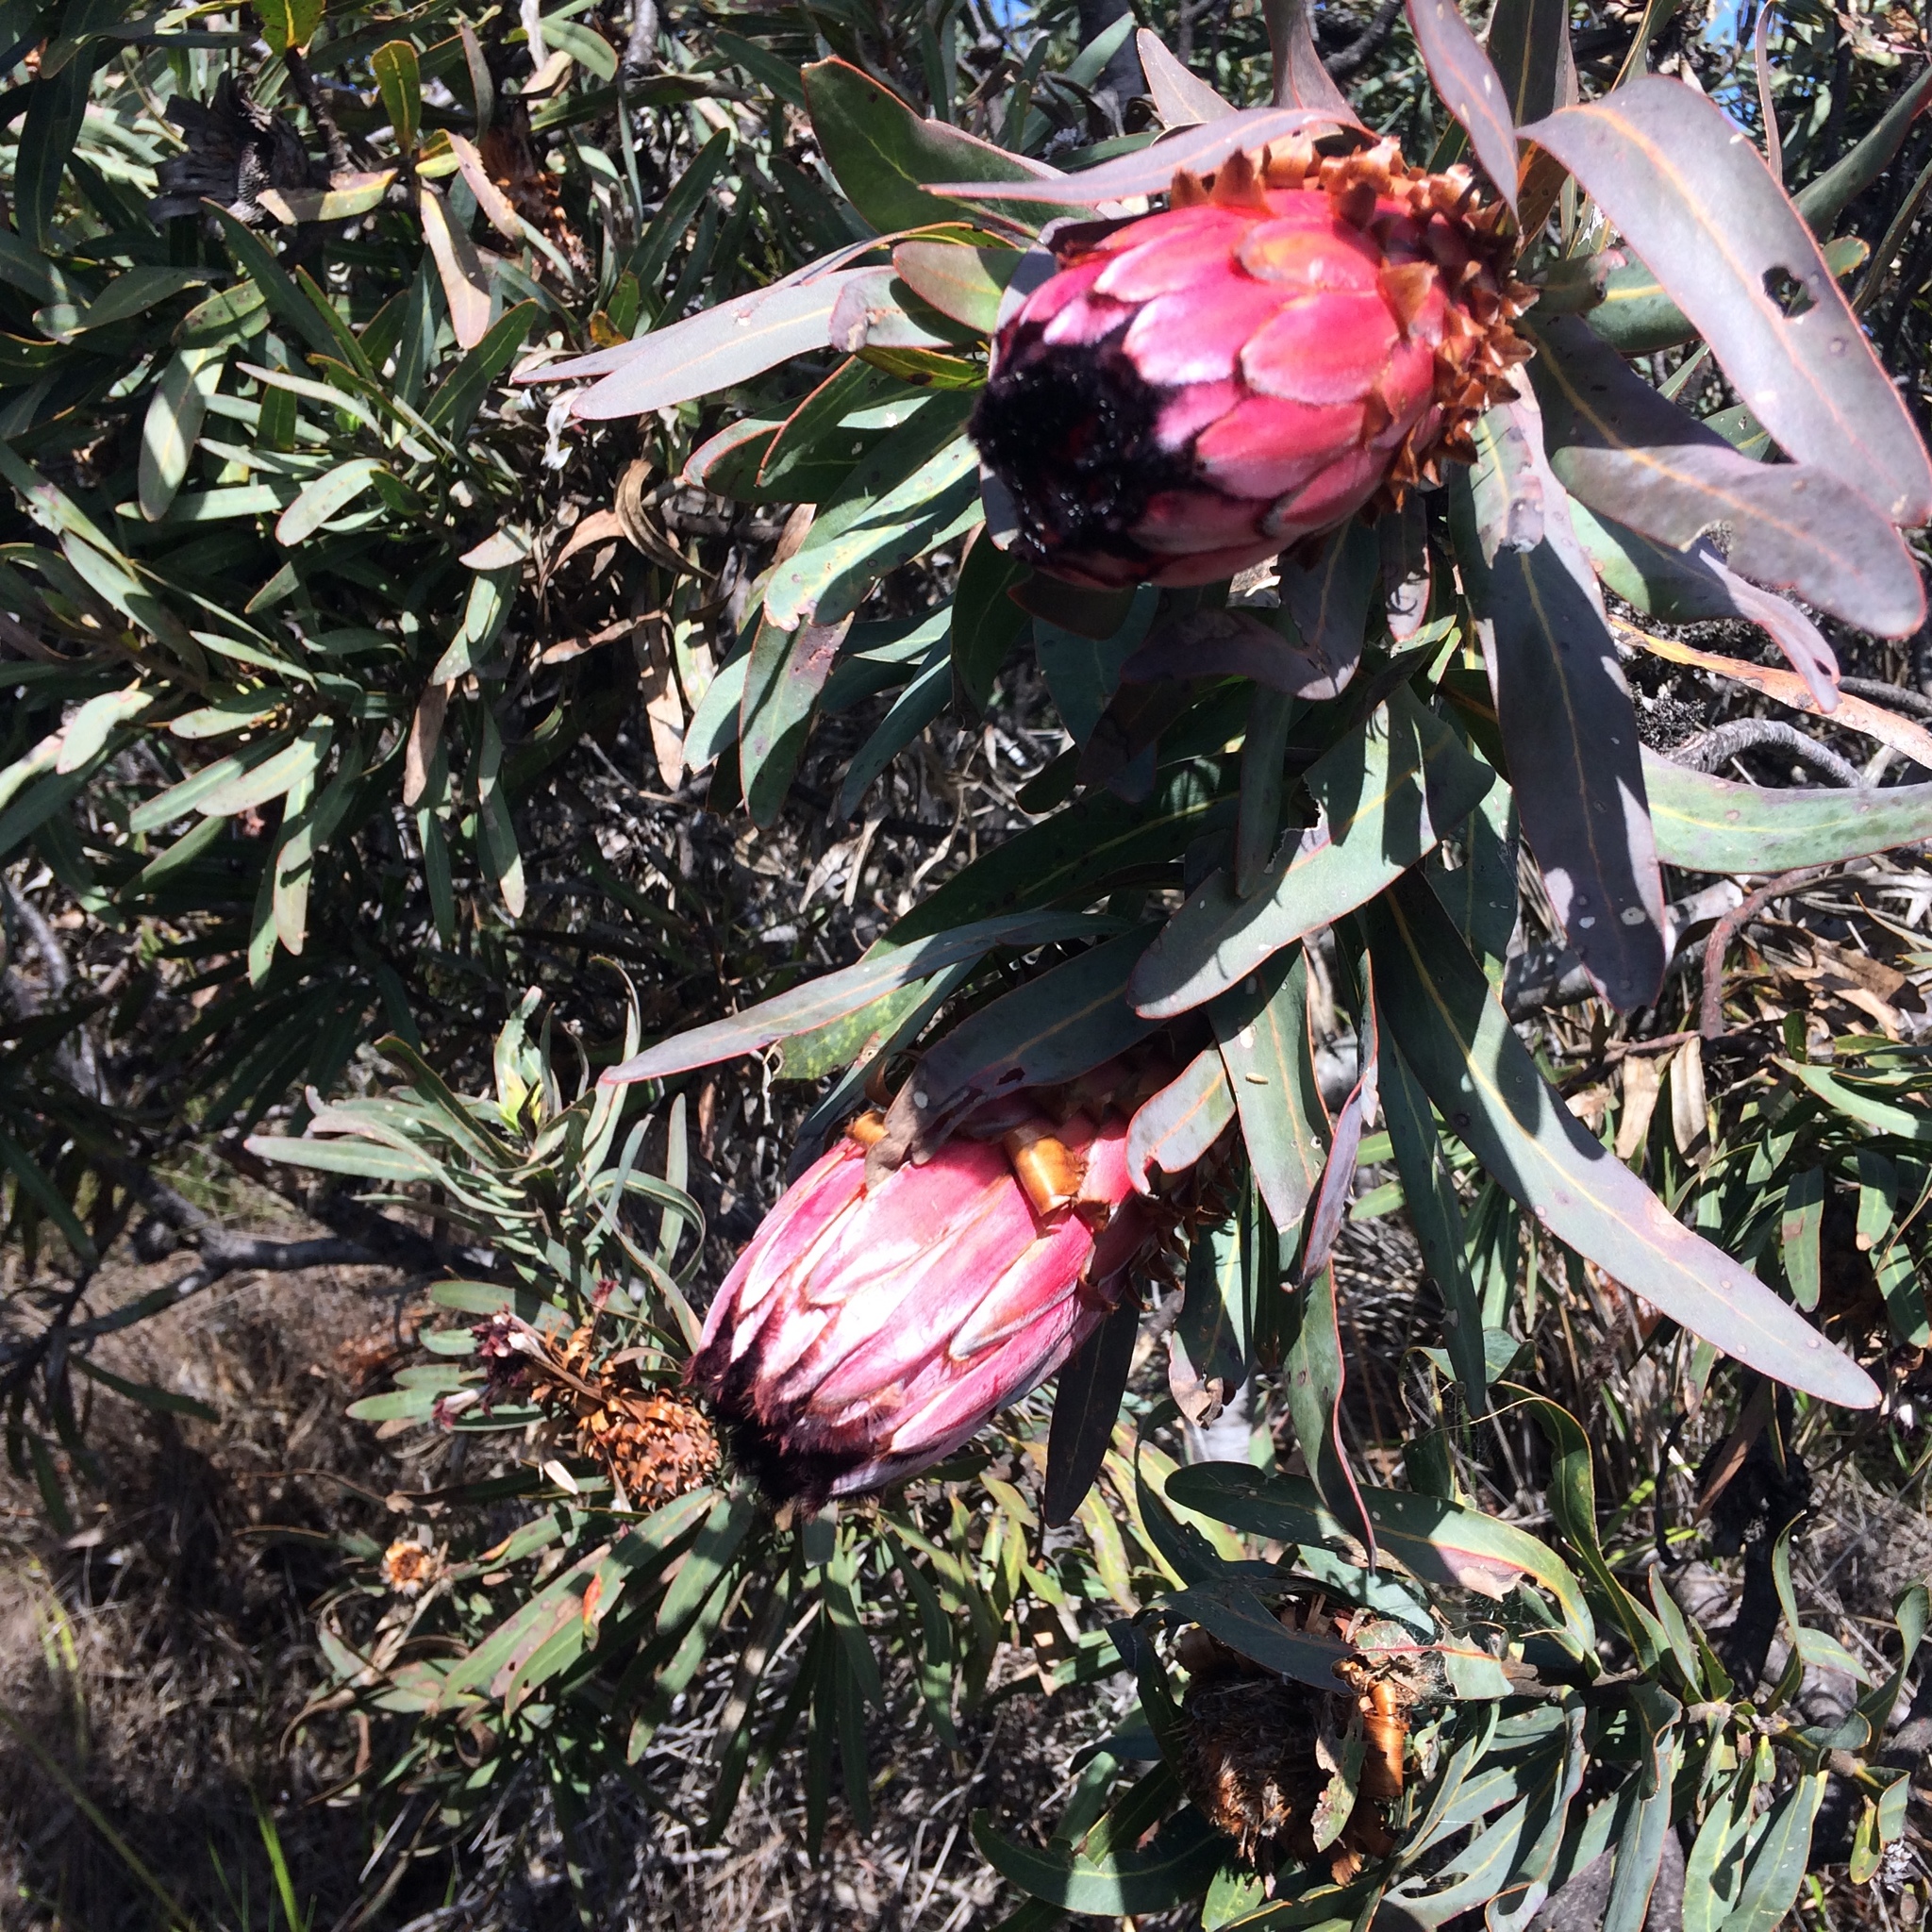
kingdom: Plantae
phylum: Tracheophyta
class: Magnoliopsida
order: Proteales
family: Proteaceae
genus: Protea
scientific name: Protea neriifolia
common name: Blue sugarbush
